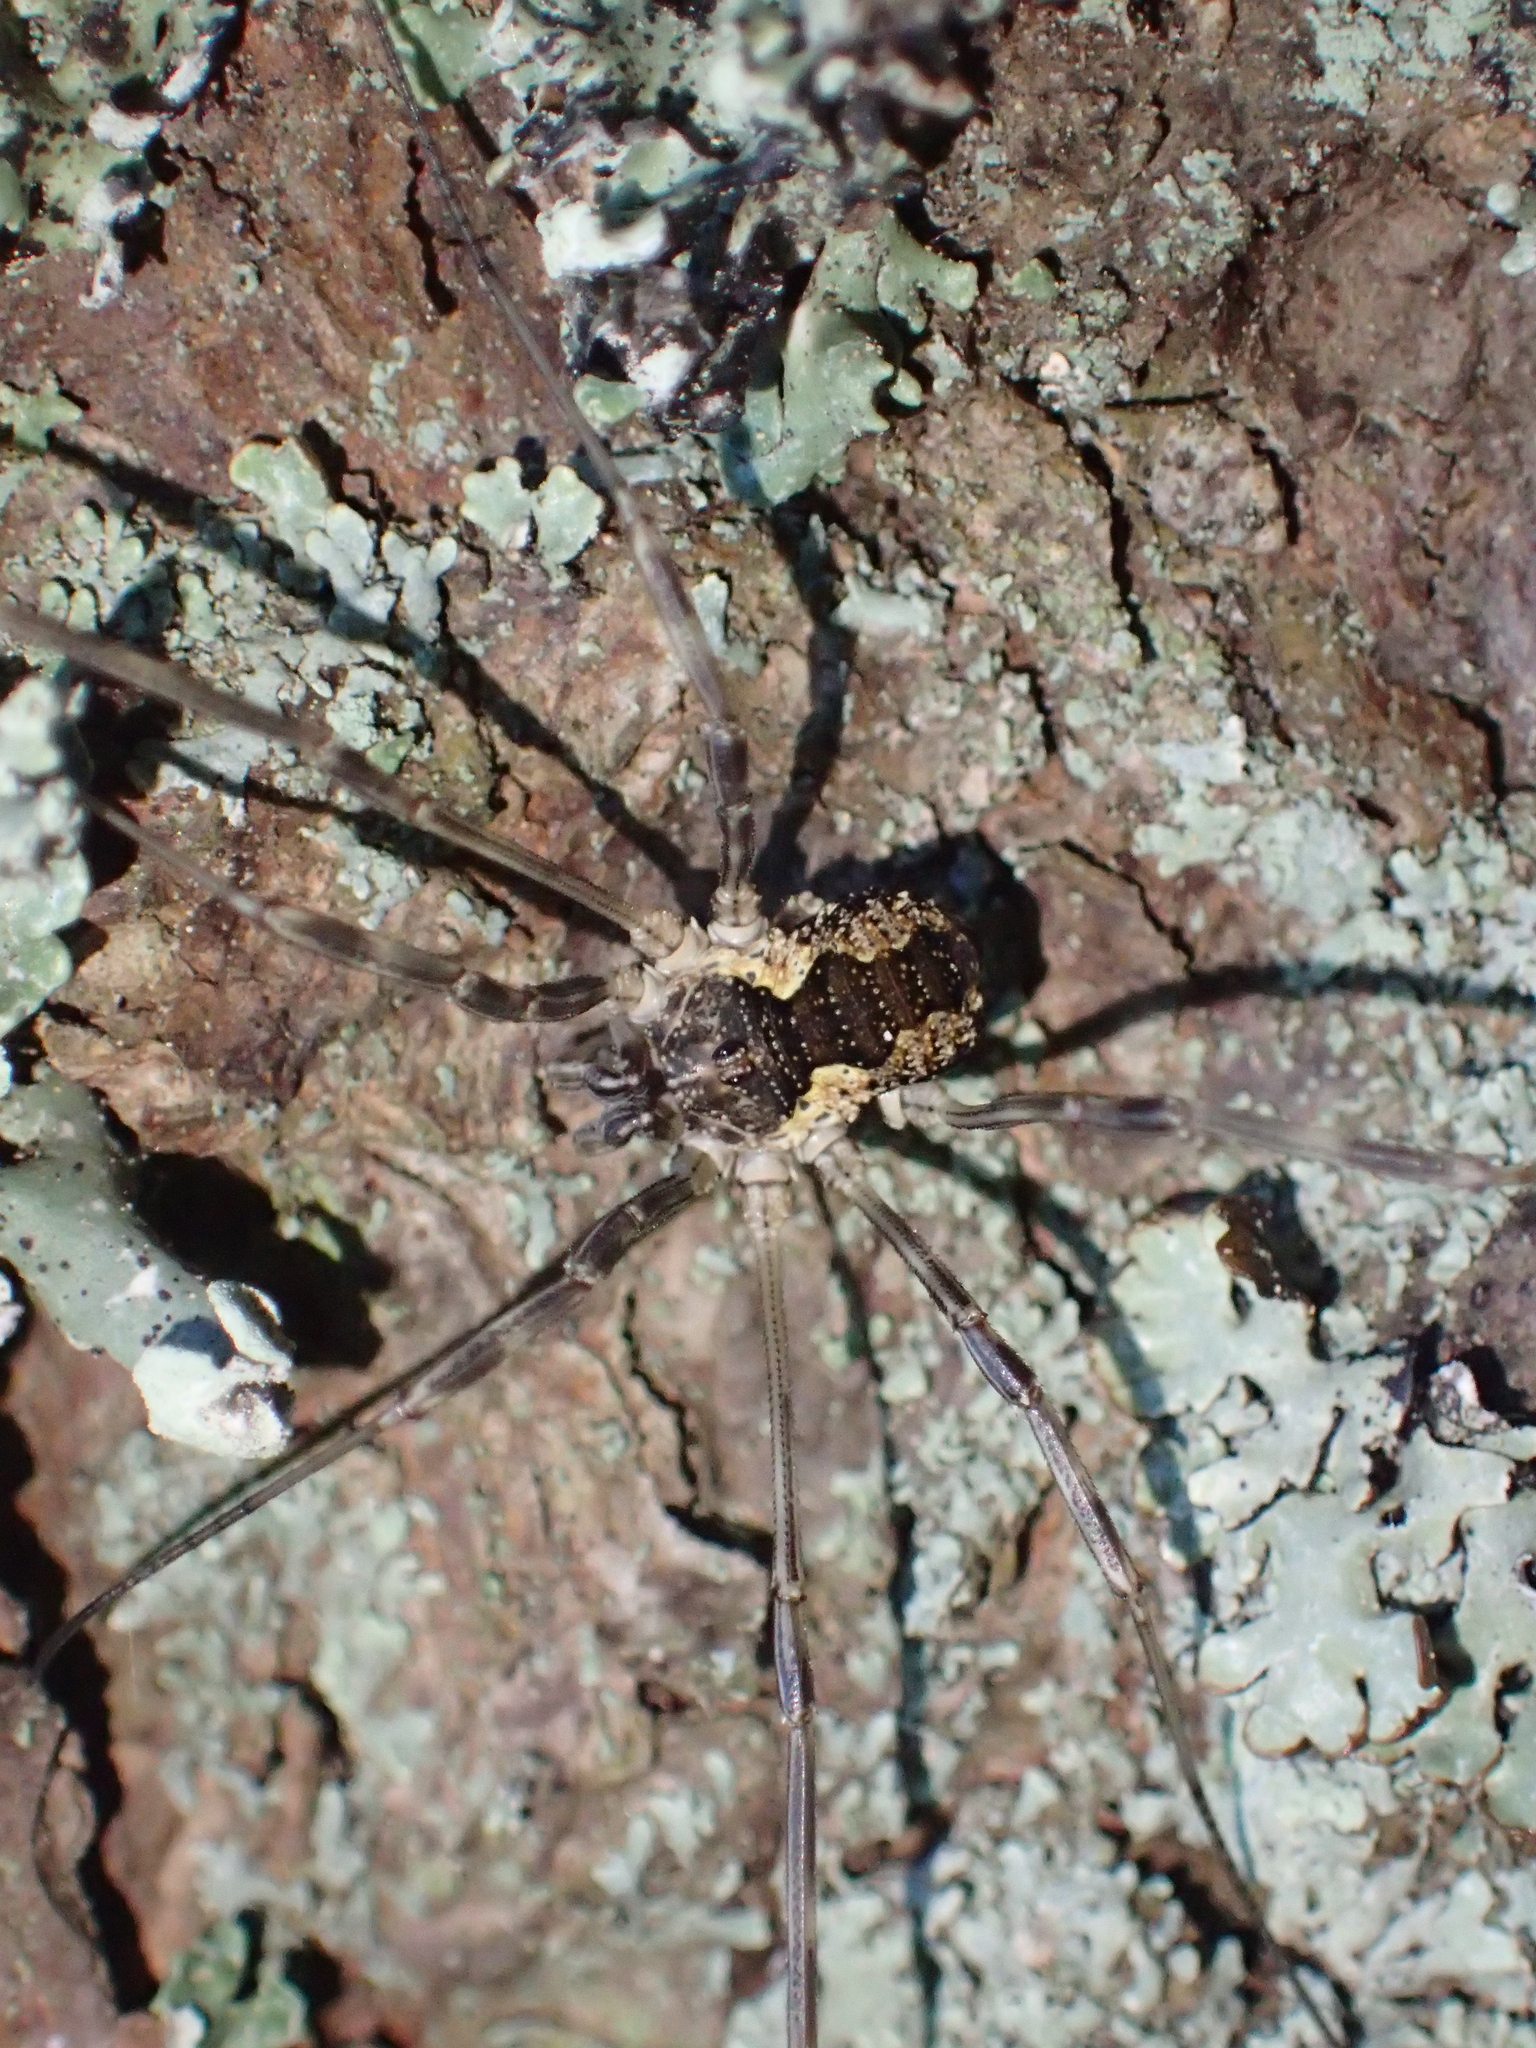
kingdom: Animalia
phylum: Arthropoda
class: Arachnida
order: Opiliones
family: Phalangiidae
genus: Mitopus
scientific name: Mitopus morio
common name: Saddleback harvestman
